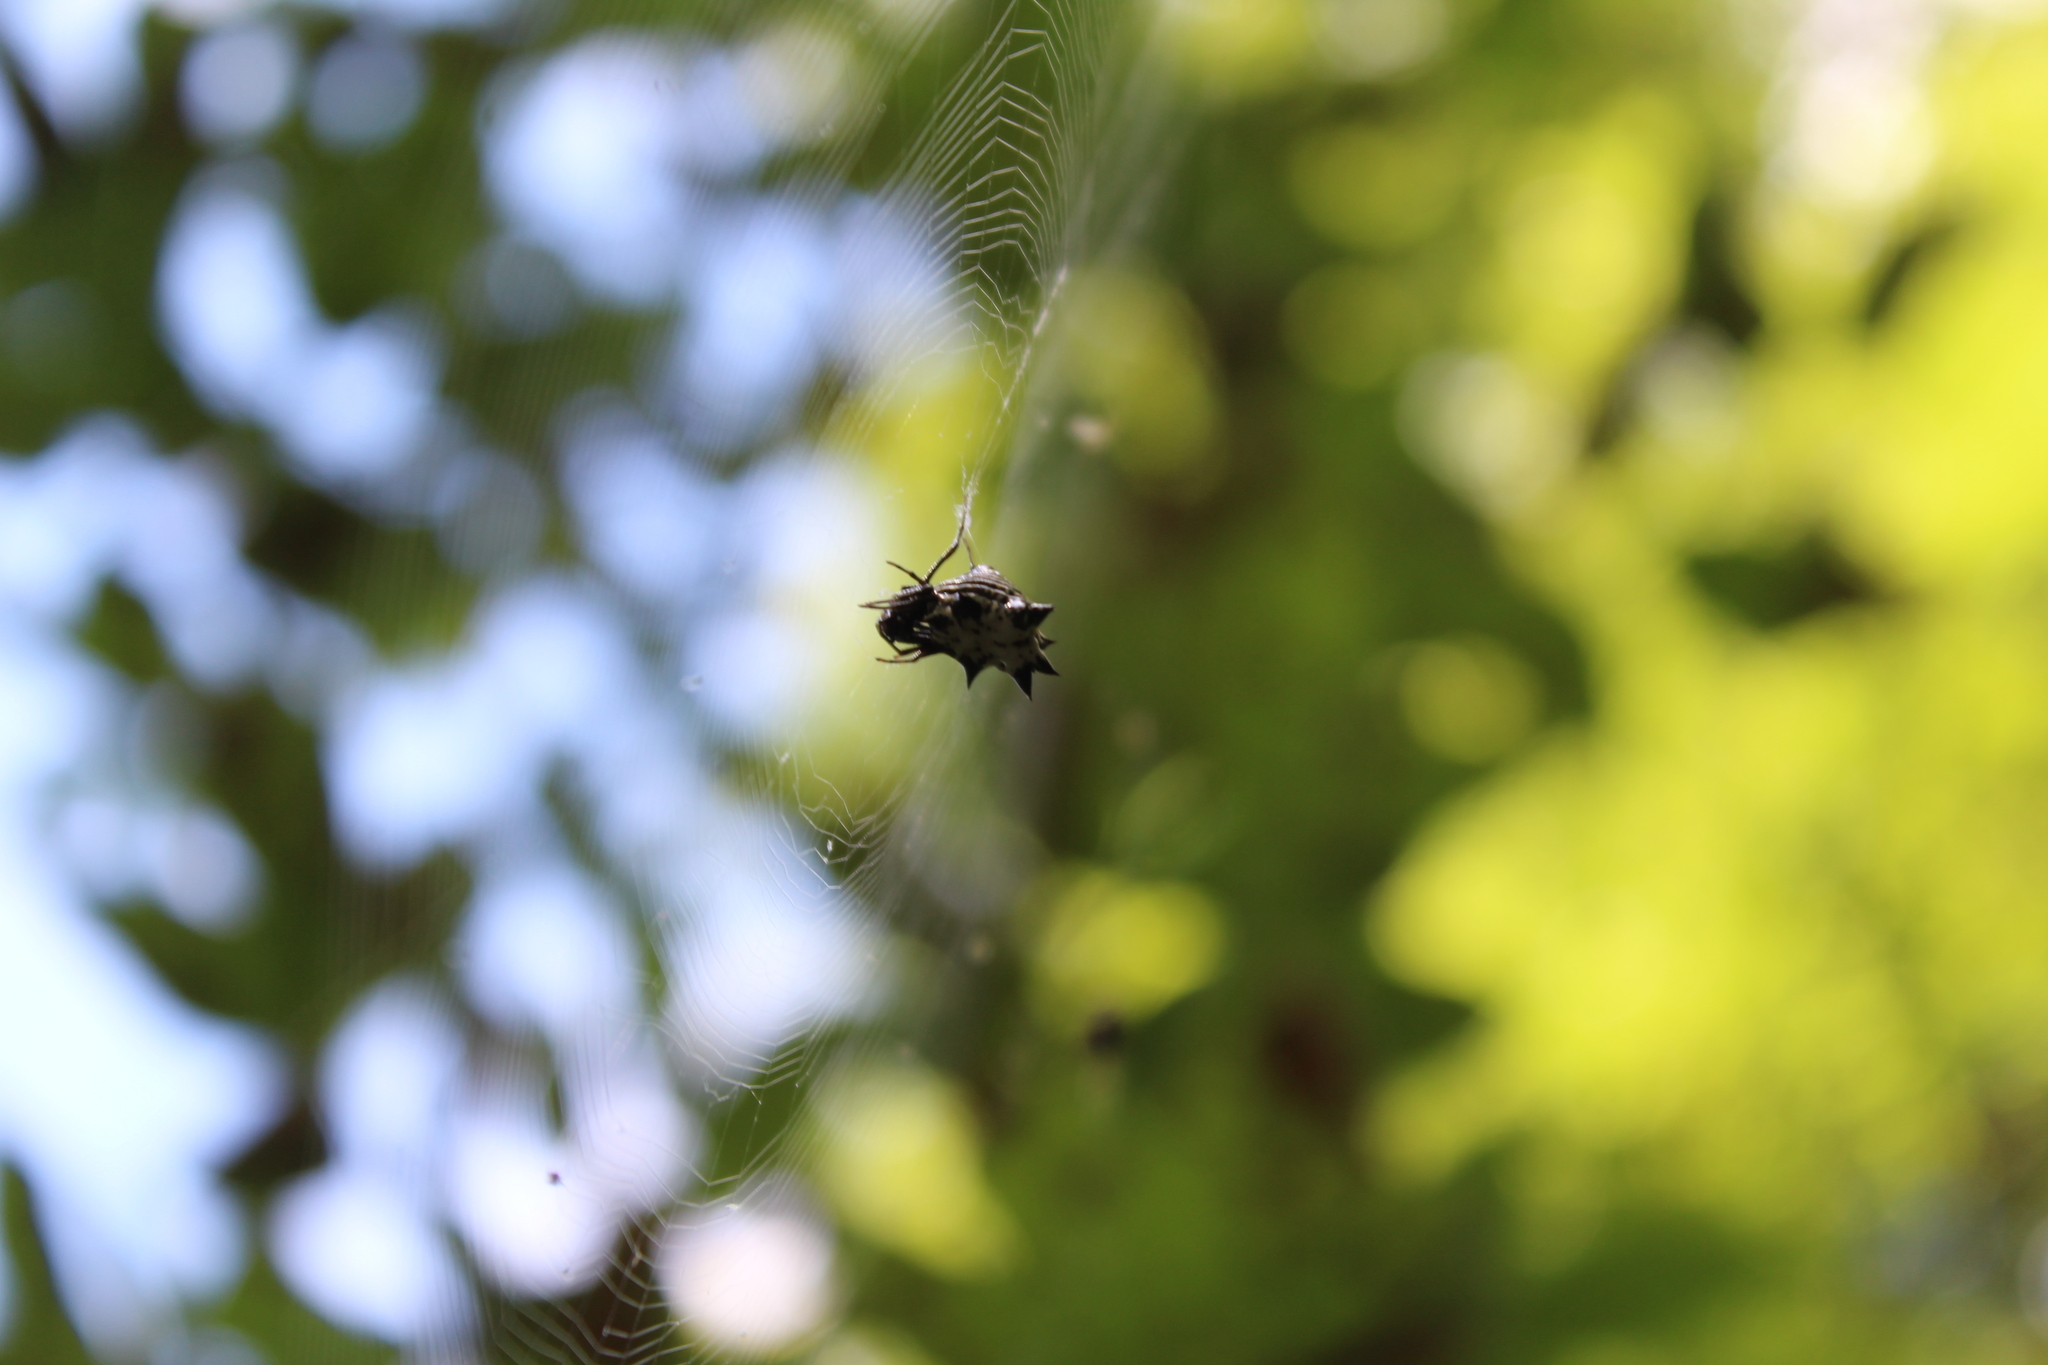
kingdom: Animalia
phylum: Arthropoda
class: Arachnida
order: Araneae
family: Araneidae
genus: Micrathena
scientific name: Micrathena gracilis
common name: Orb weavers
